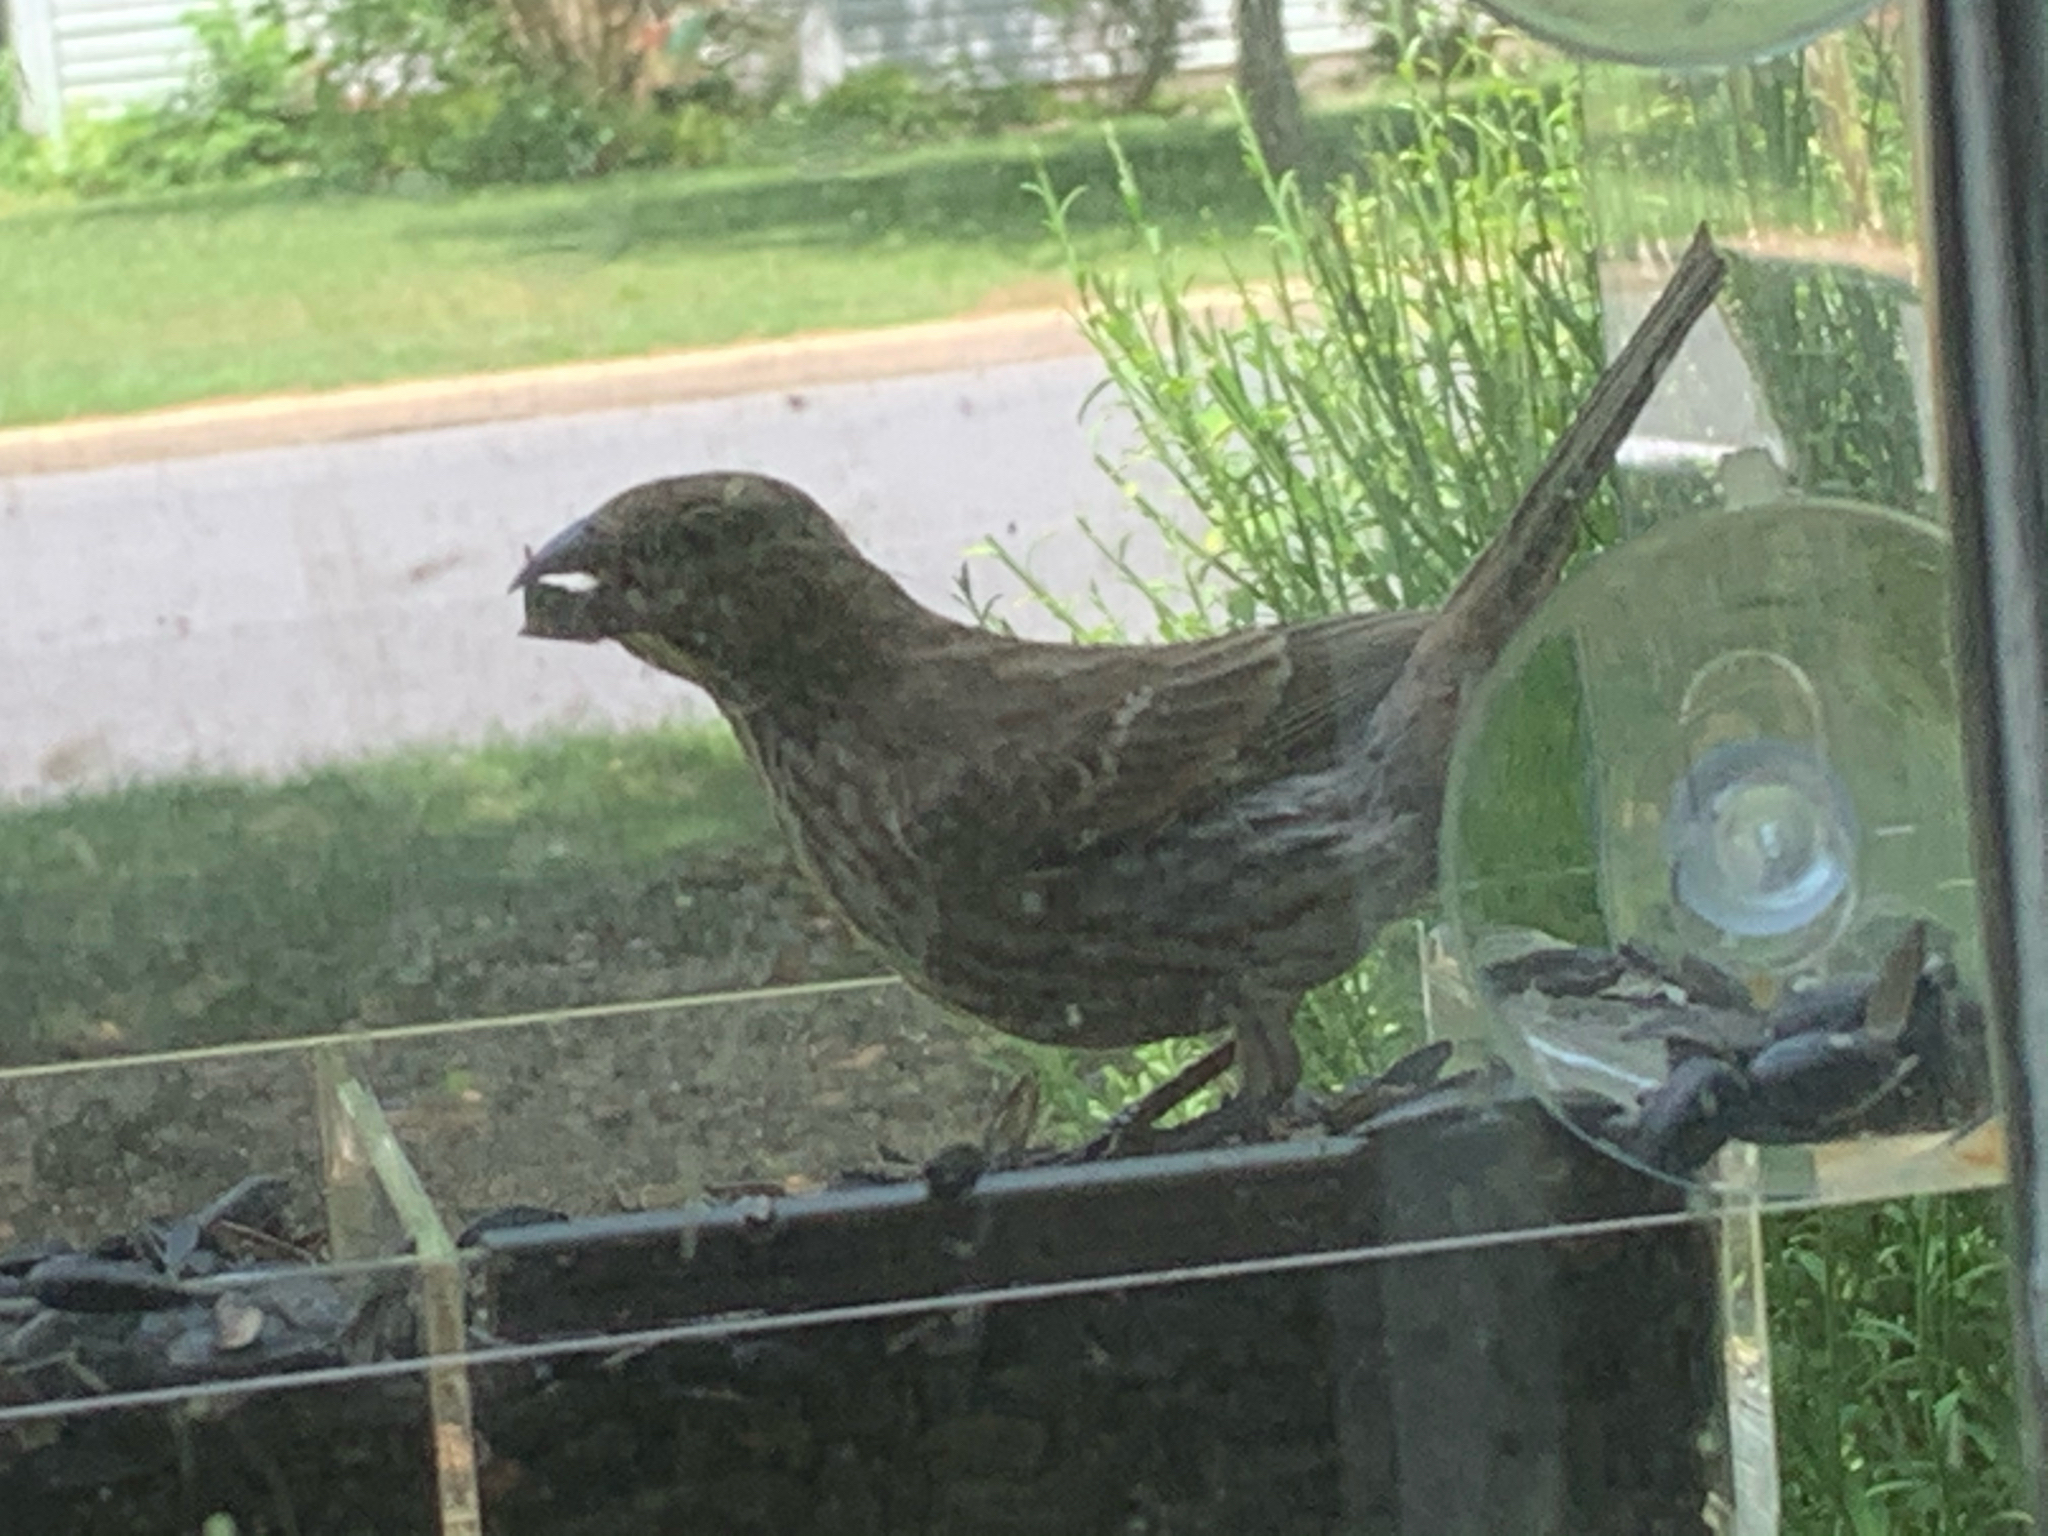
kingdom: Animalia
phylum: Chordata
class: Aves
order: Passeriformes
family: Fringillidae
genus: Haemorhous
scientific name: Haemorhous mexicanus
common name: House finch
